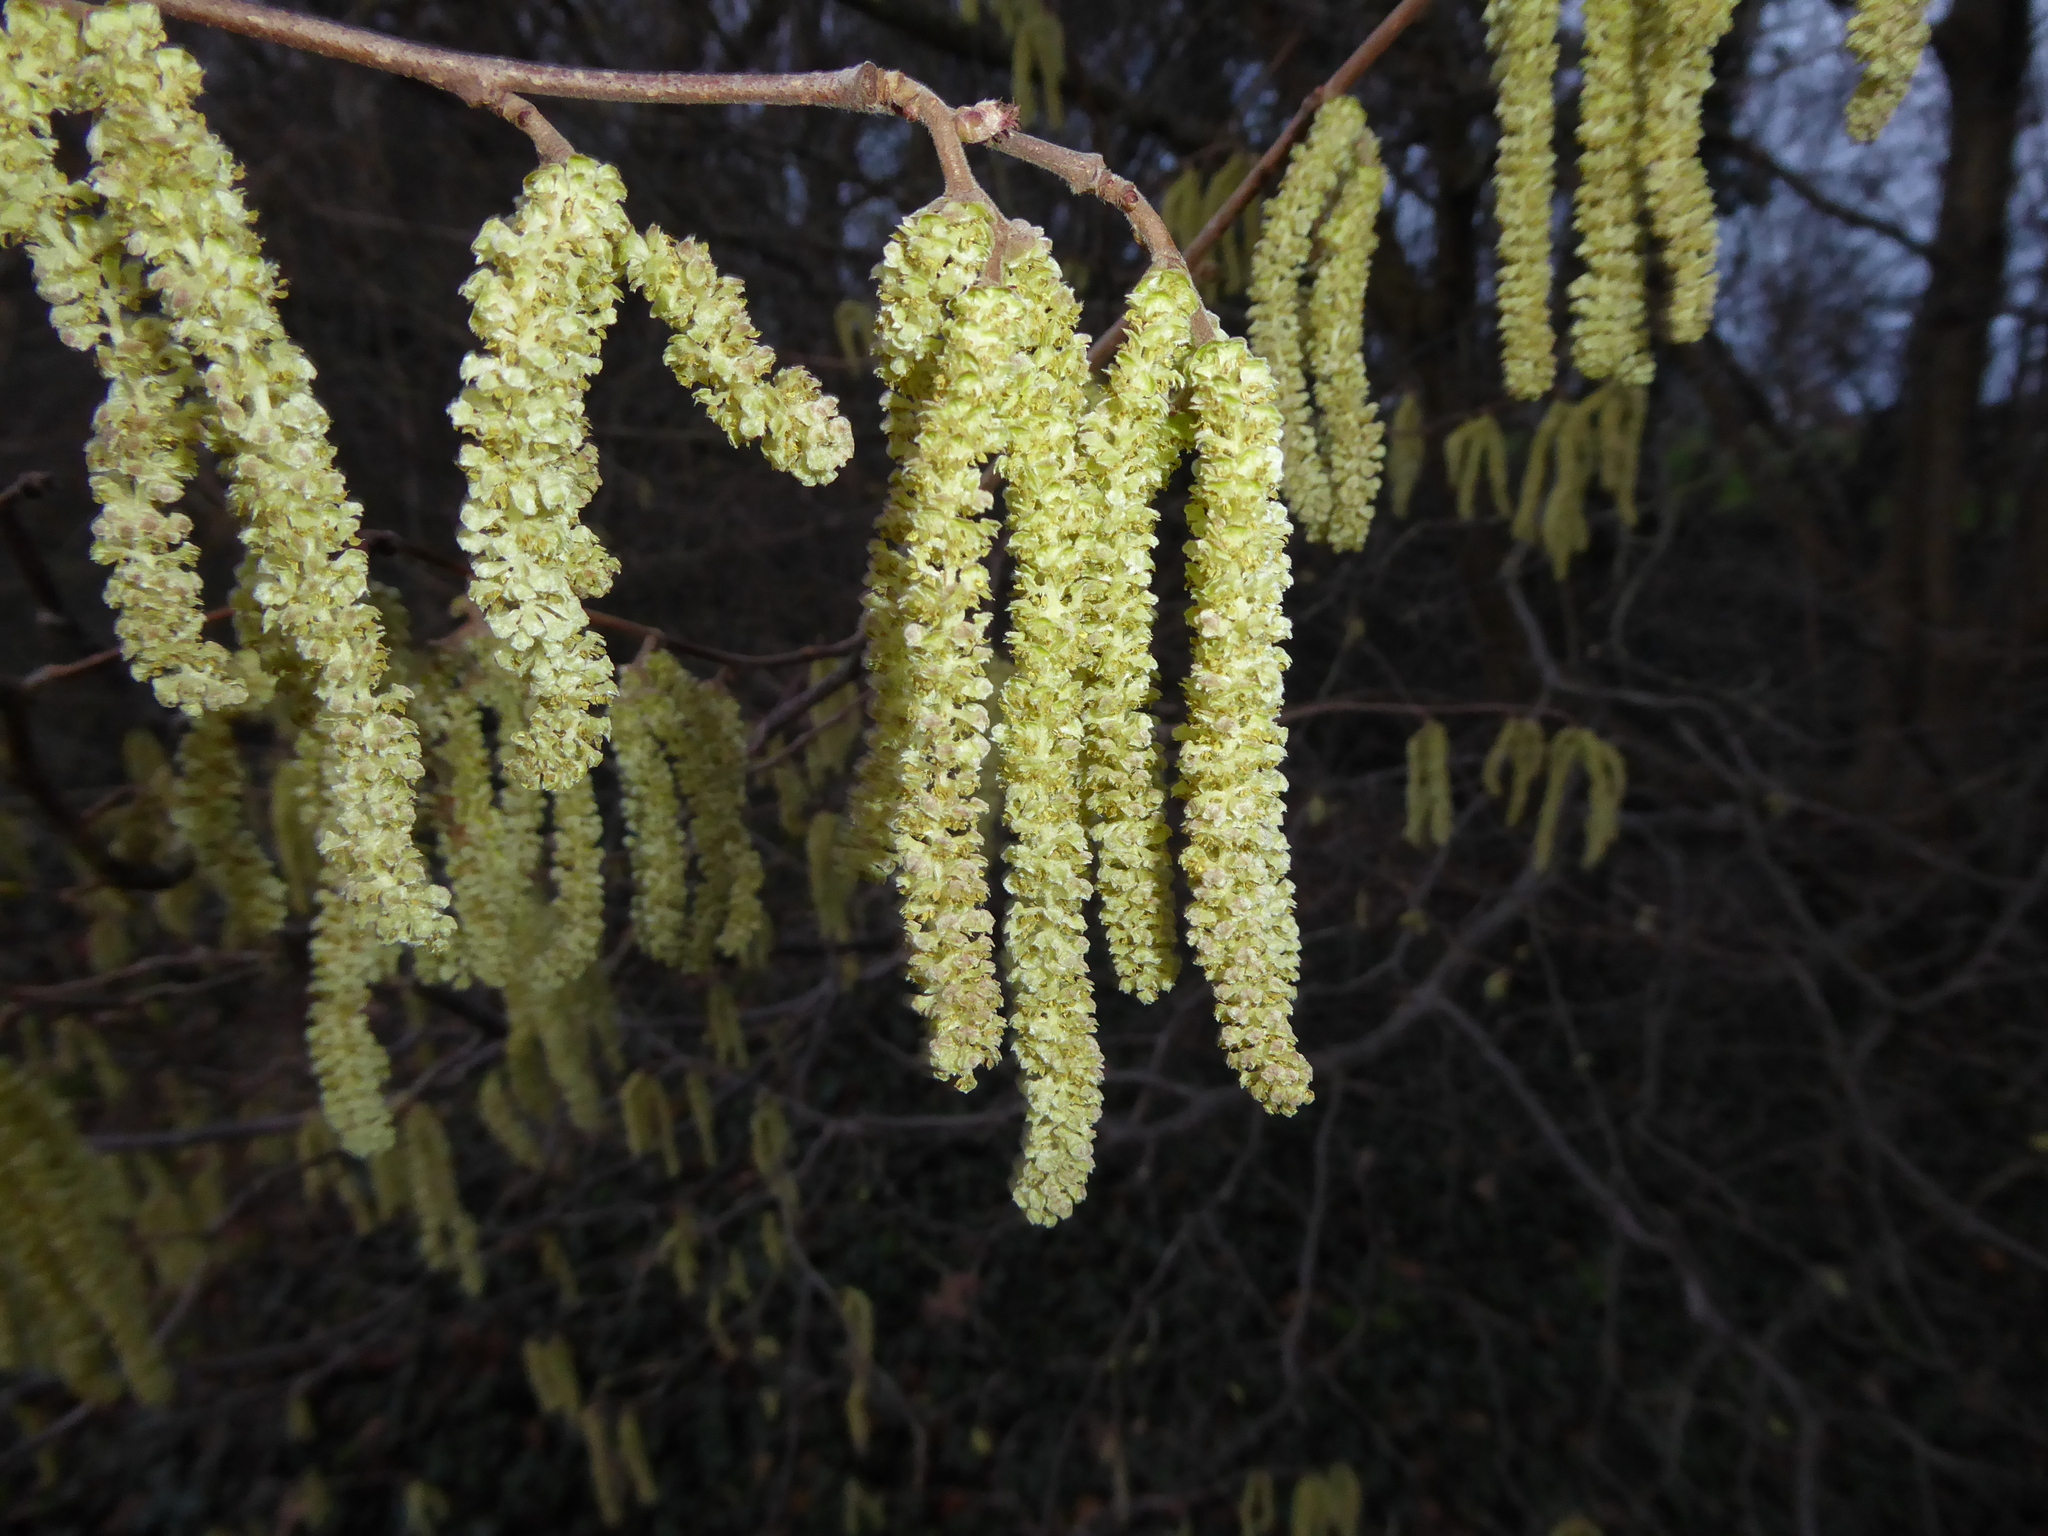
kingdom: Plantae
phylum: Tracheophyta
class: Magnoliopsida
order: Fagales
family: Betulaceae
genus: Corylus
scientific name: Corylus avellana
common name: European hazel
